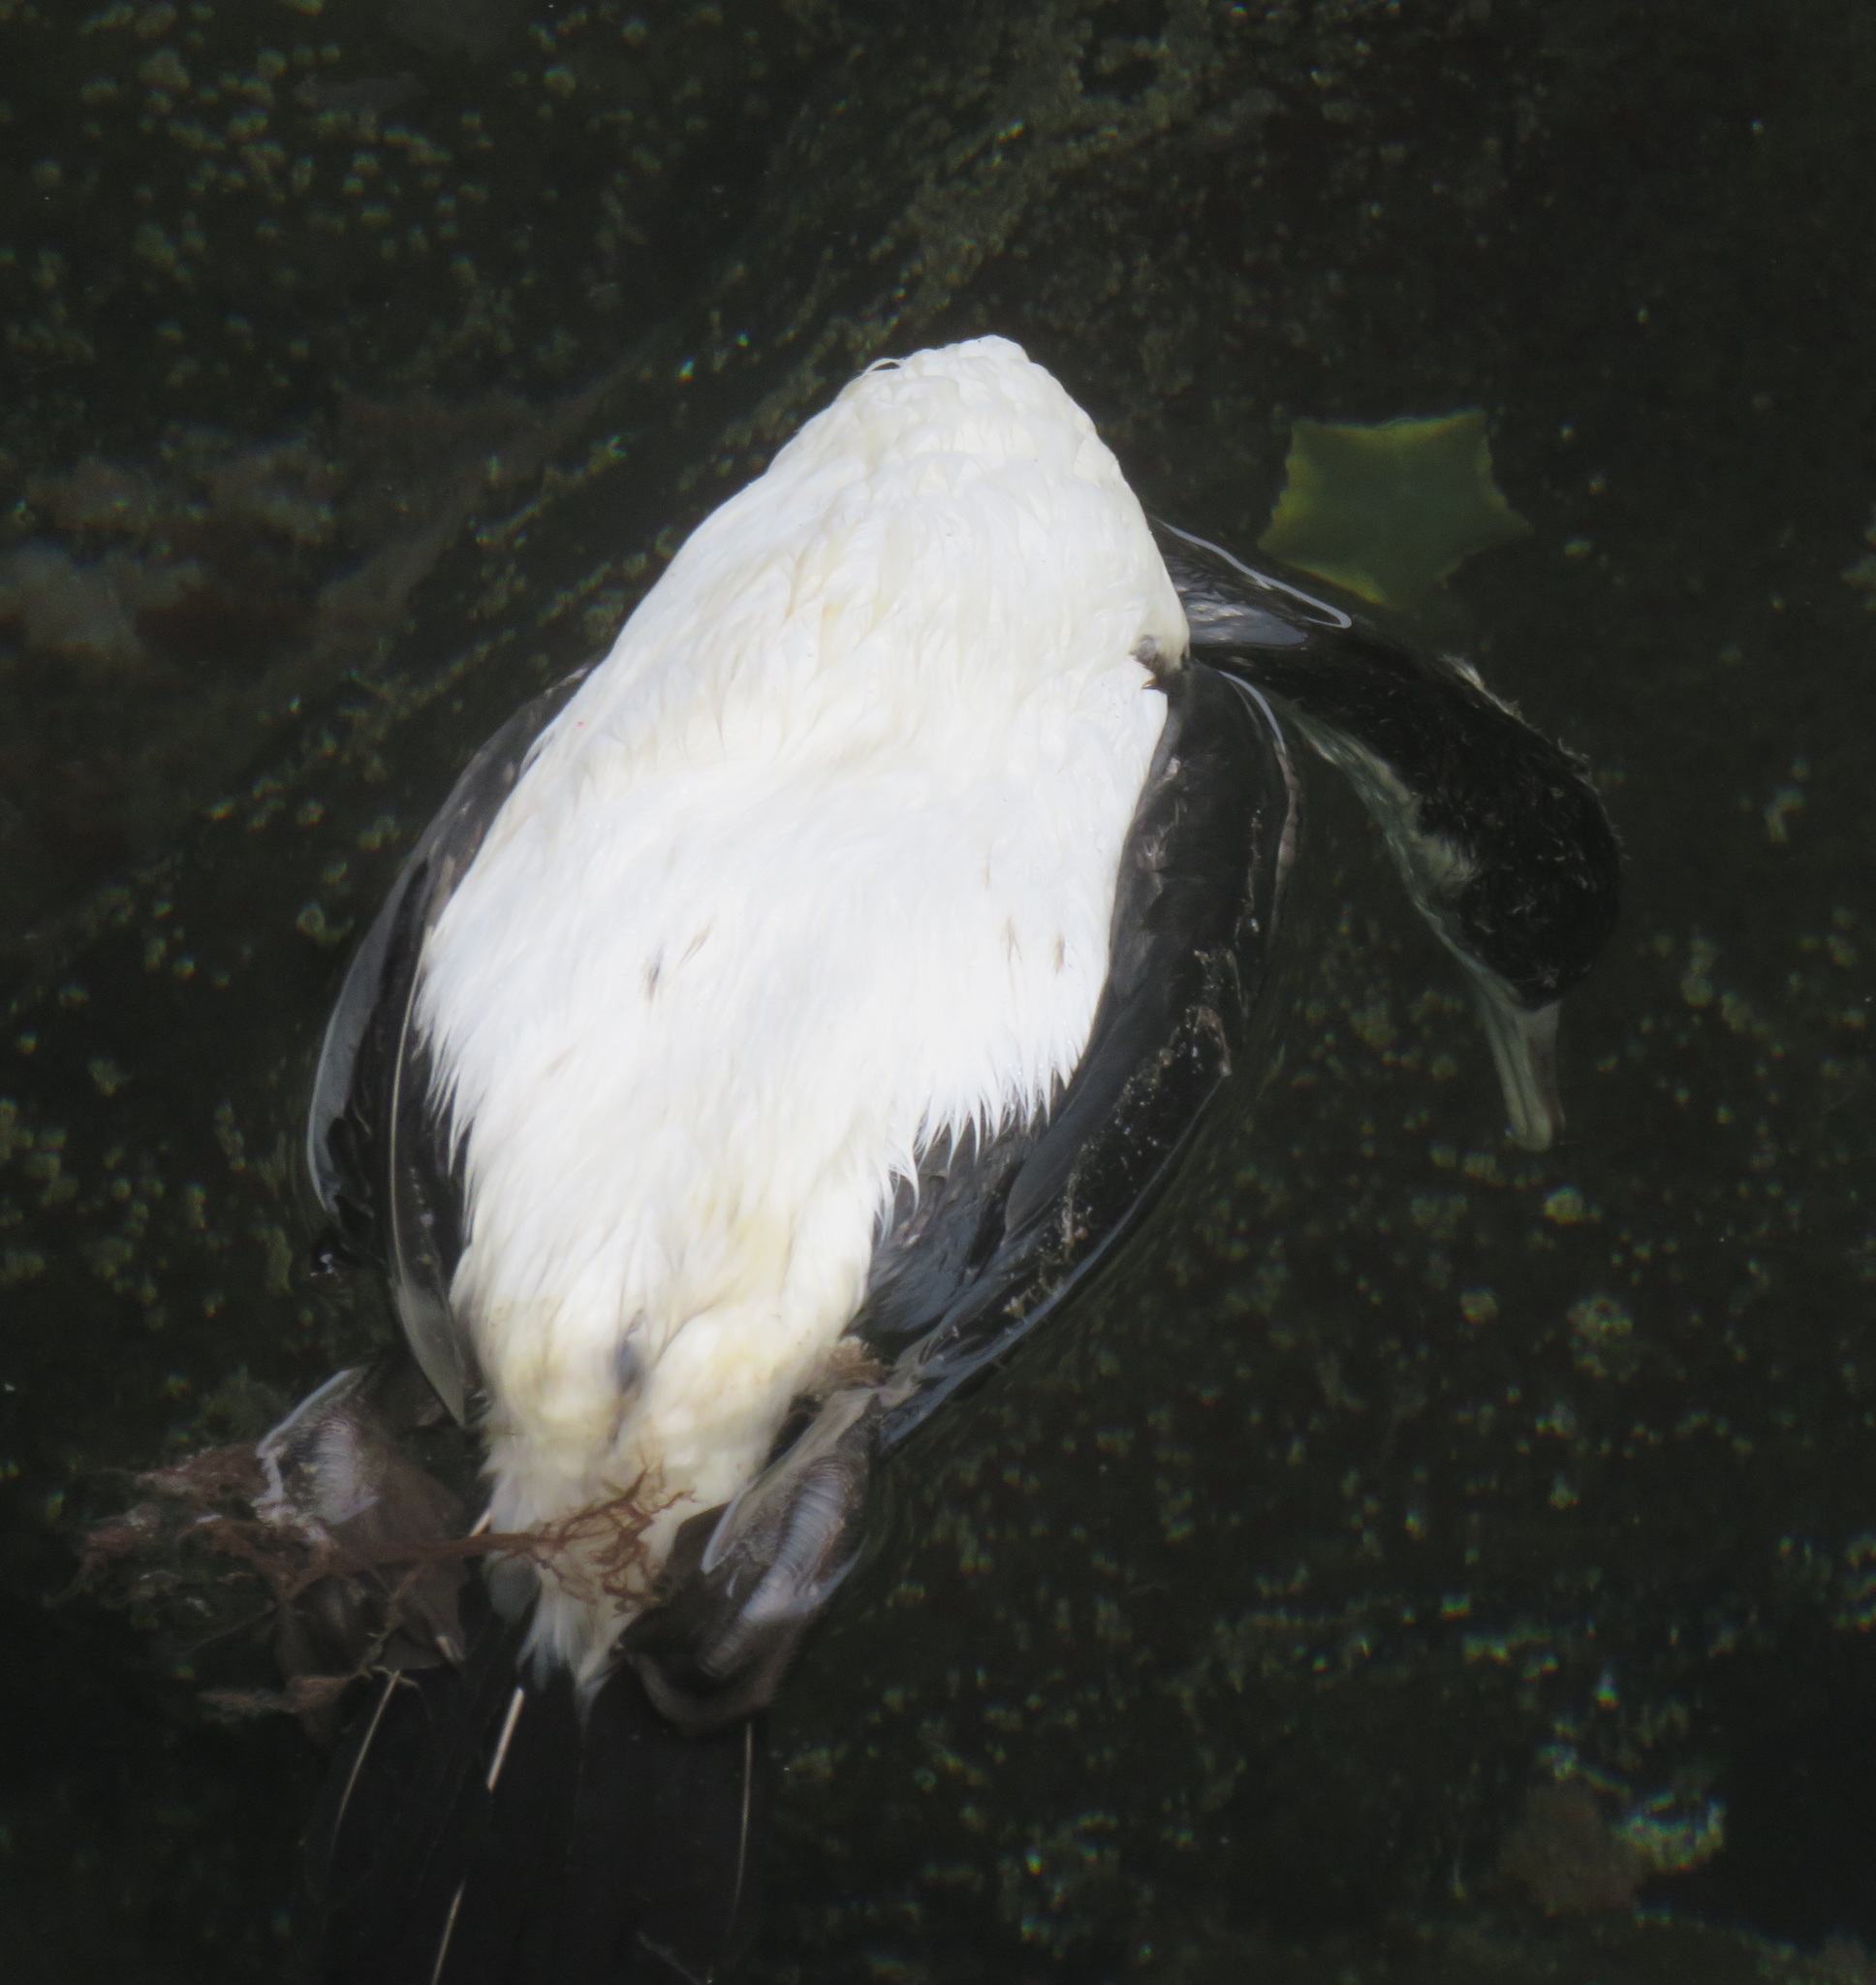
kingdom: Animalia
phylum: Chordata
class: Aves
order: Suliformes
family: Phalacrocoracidae
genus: Phalacrocorax
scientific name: Phalacrocorax varius
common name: Pied cormorant
